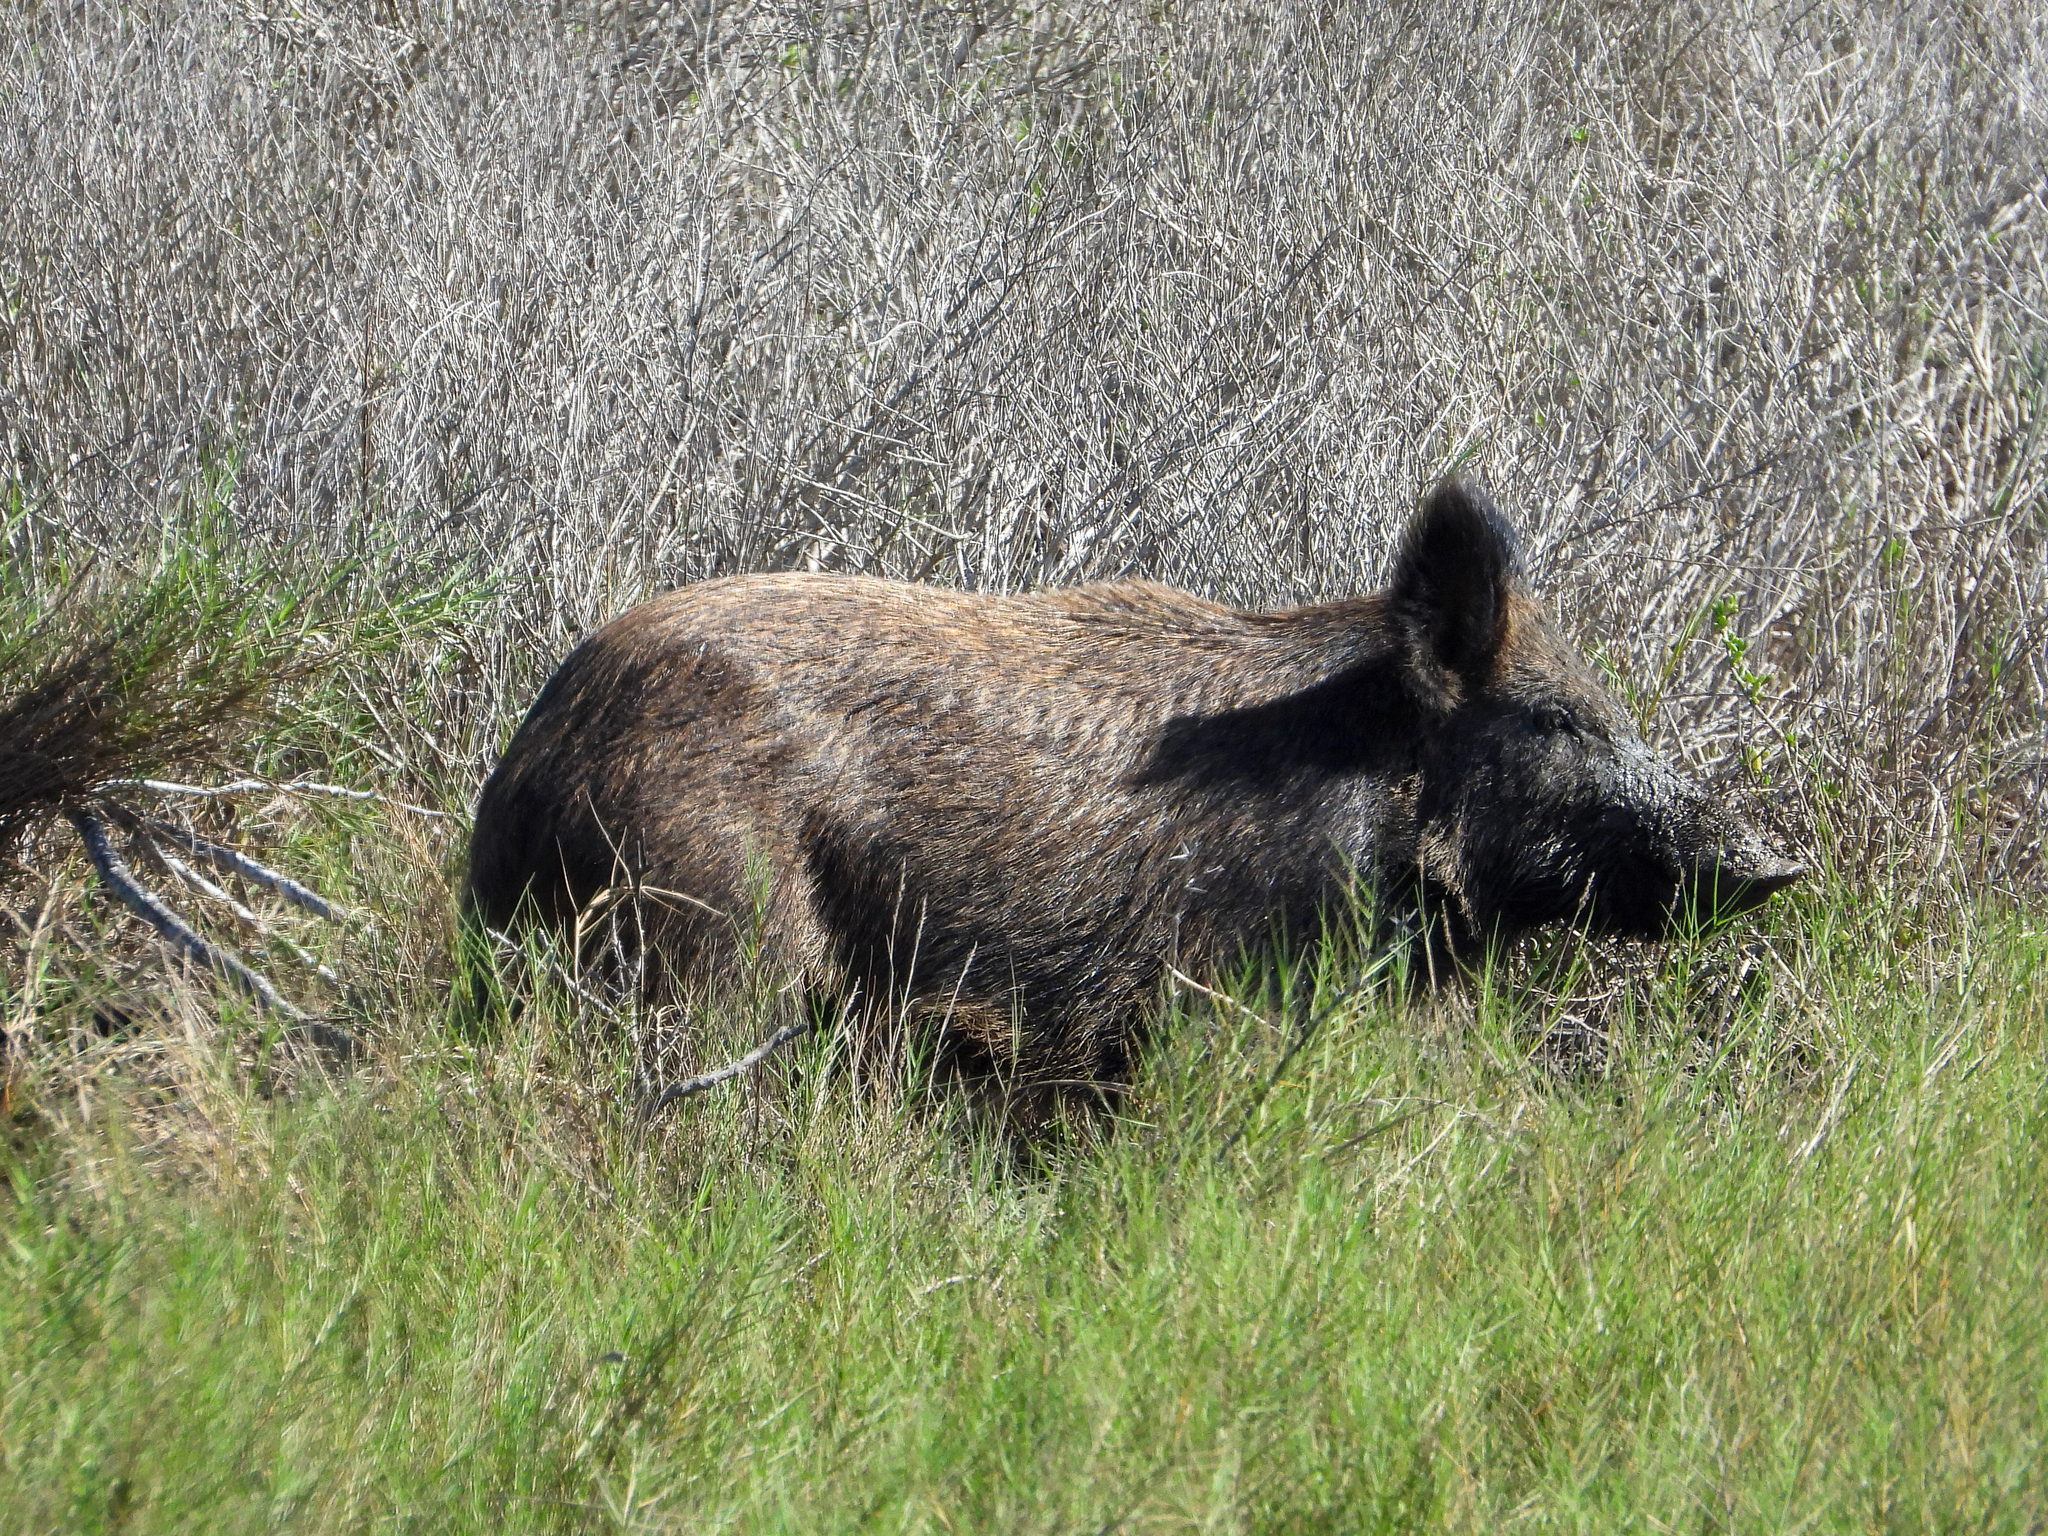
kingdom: Animalia
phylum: Chordata
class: Mammalia
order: Artiodactyla
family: Suidae
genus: Sus
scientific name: Sus scrofa
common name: Wild boar
